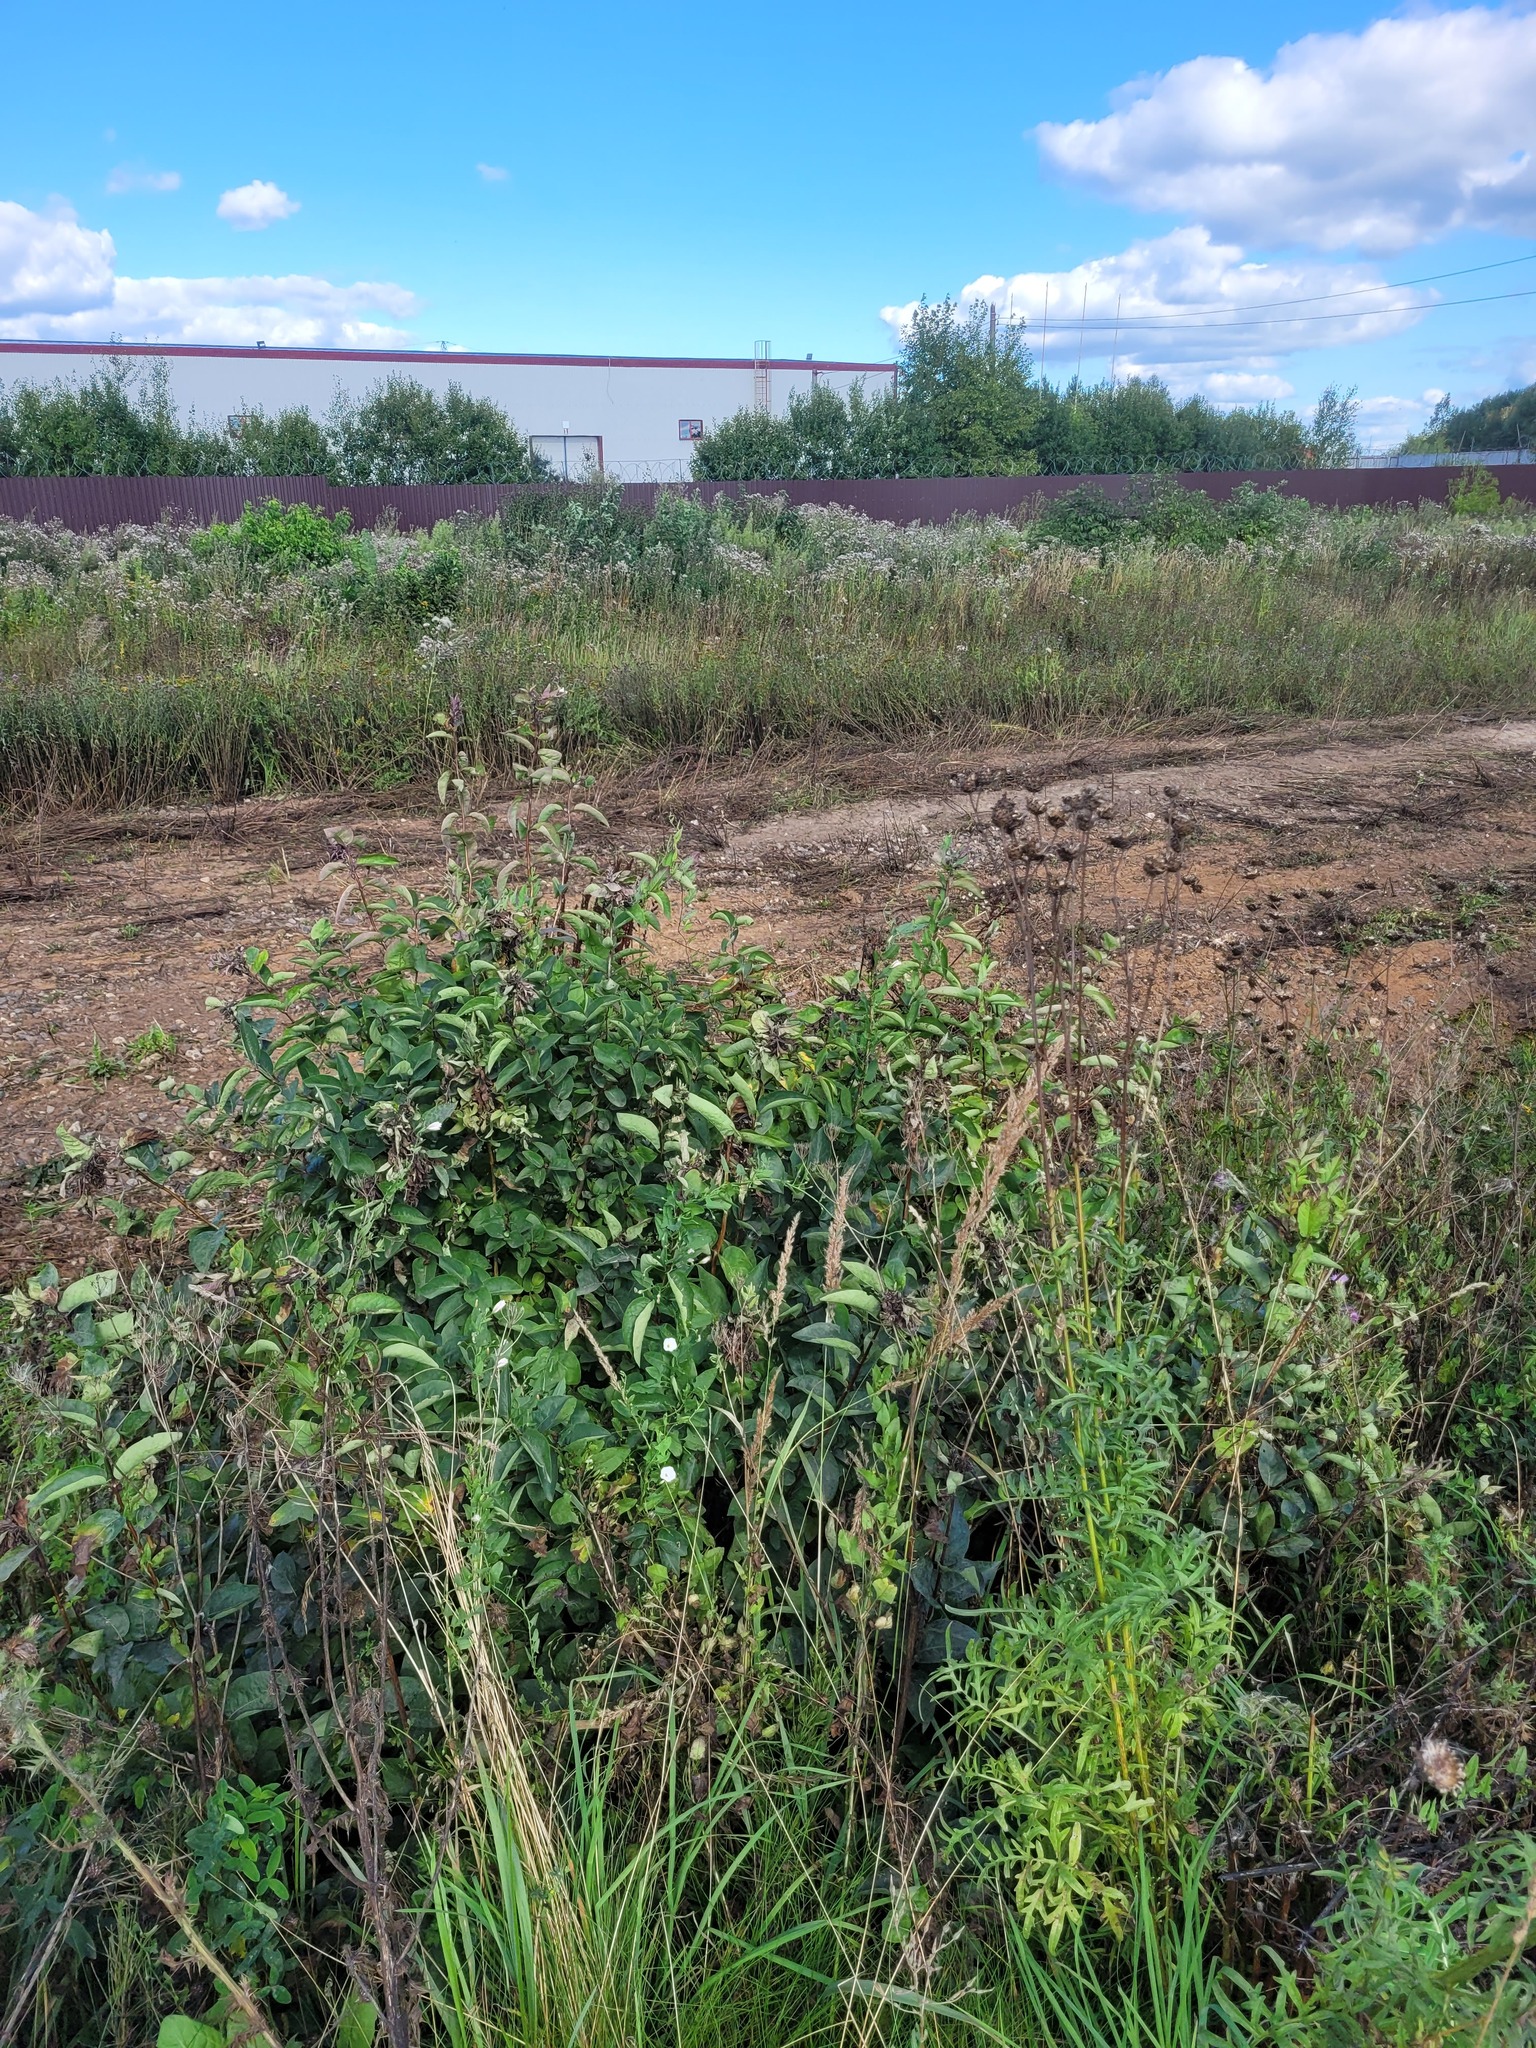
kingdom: Plantae
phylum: Tracheophyta
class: Magnoliopsida
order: Dipsacales
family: Caprifoliaceae
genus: Lonicera
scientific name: Lonicera tatarica
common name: Tatarian honeysuckle
